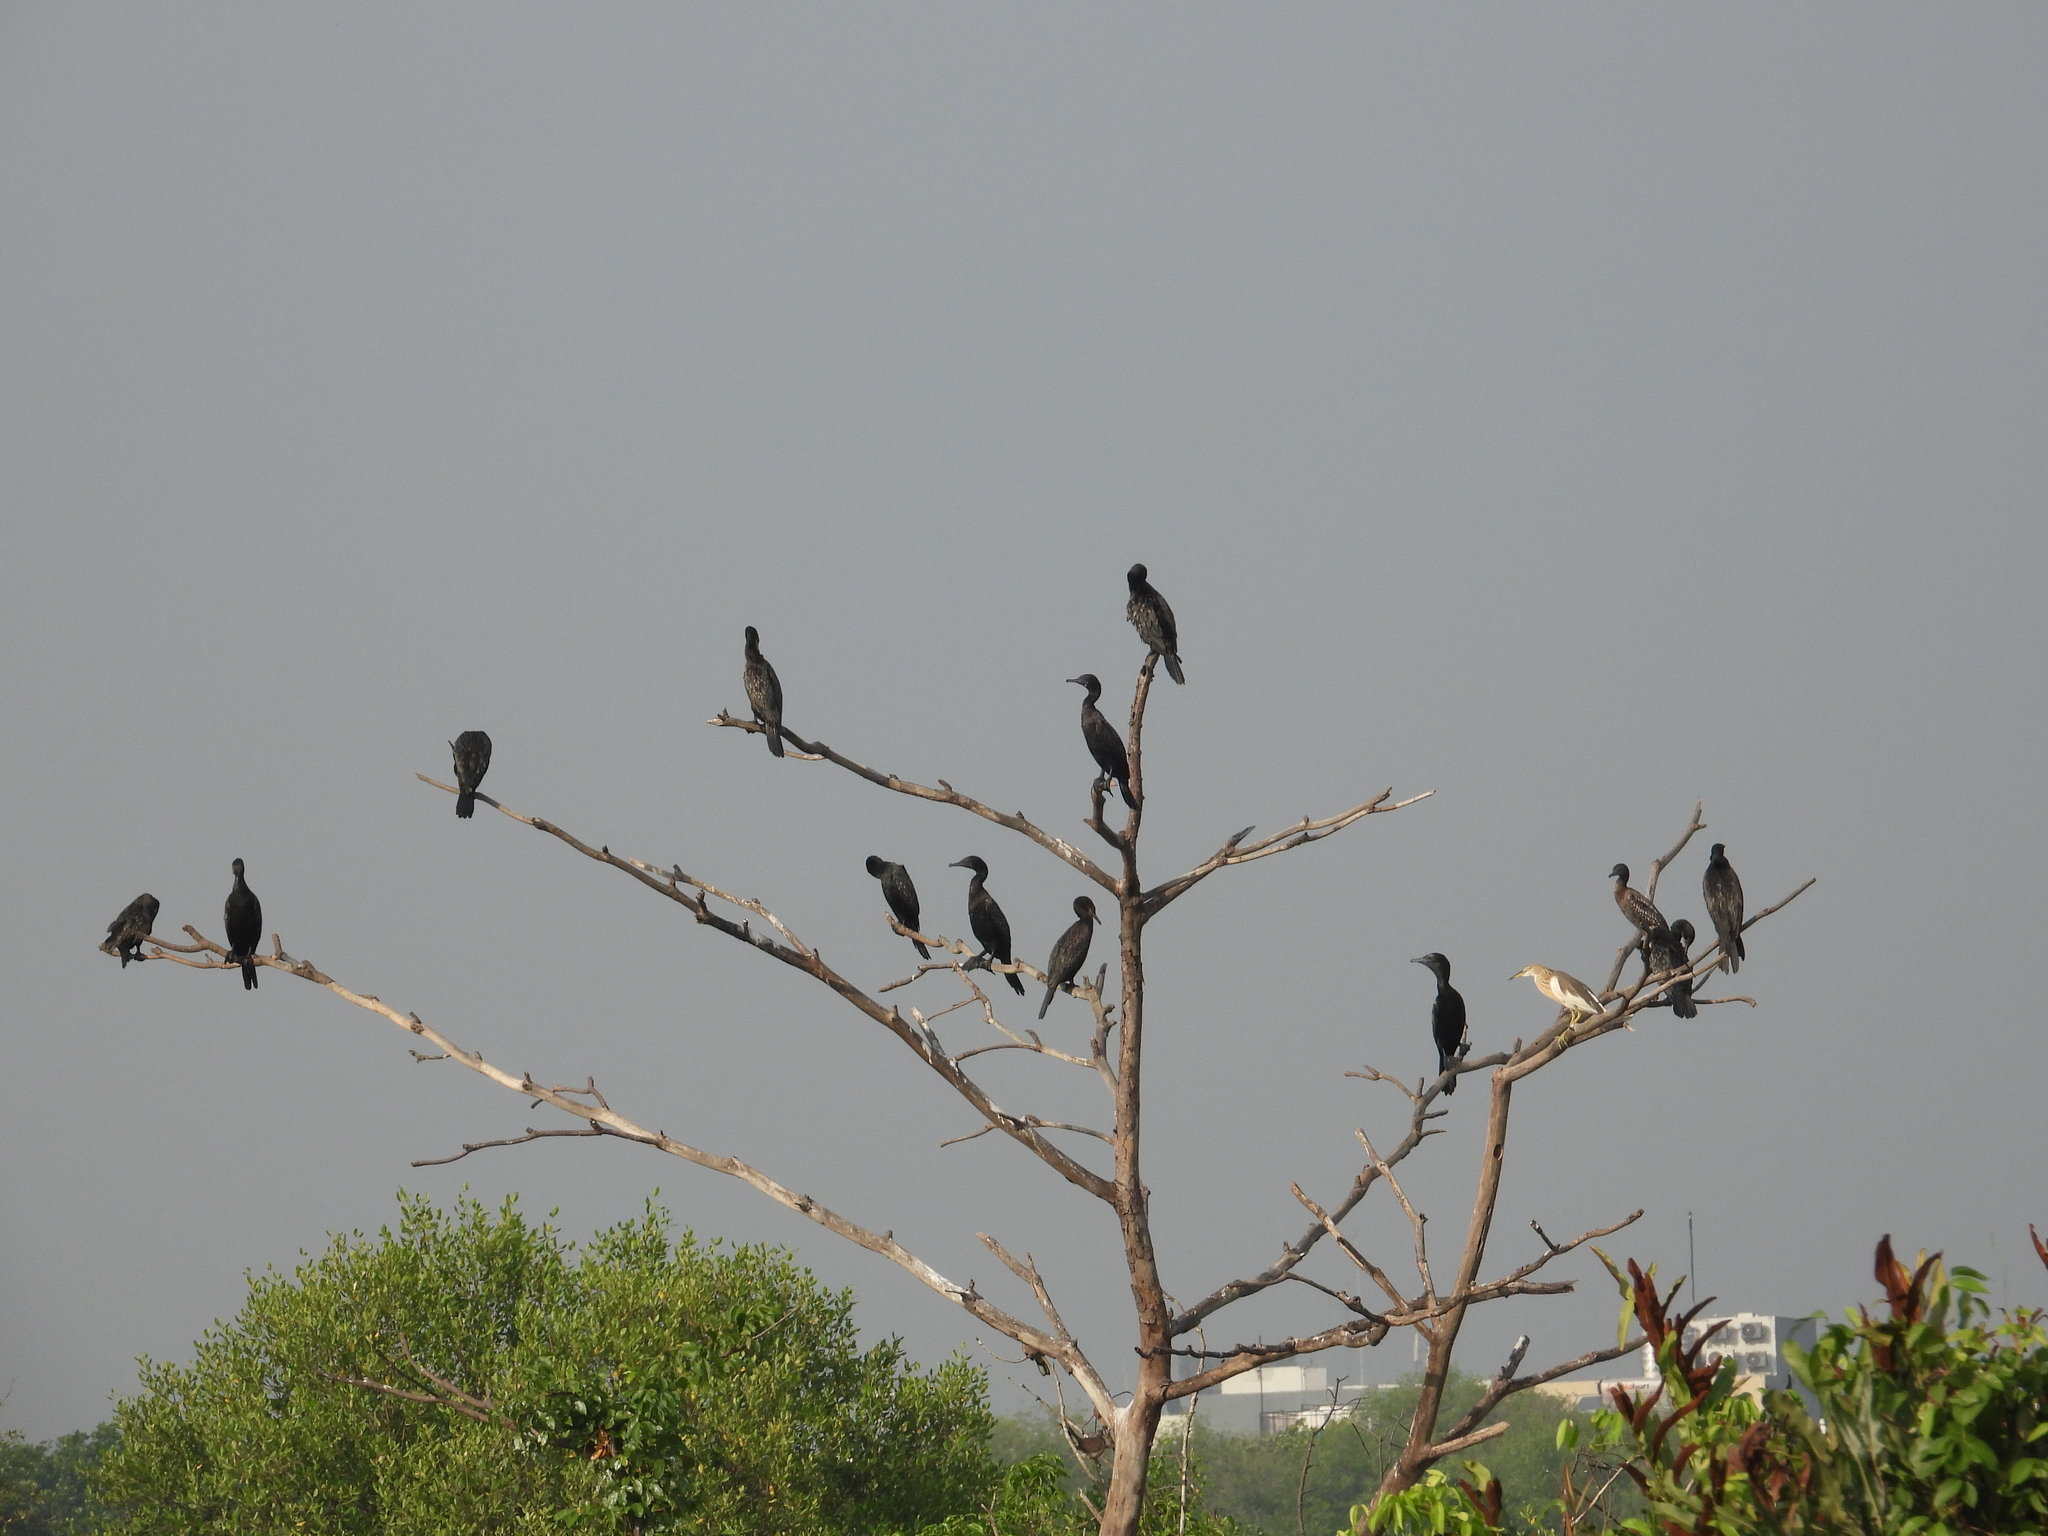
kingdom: Animalia
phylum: Chordata
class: Aves
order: Suliformes
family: Phalacrocoracidae
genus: Phalacrocorax
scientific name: Phalacrocorax sulcirostris
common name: Little black cormorant
